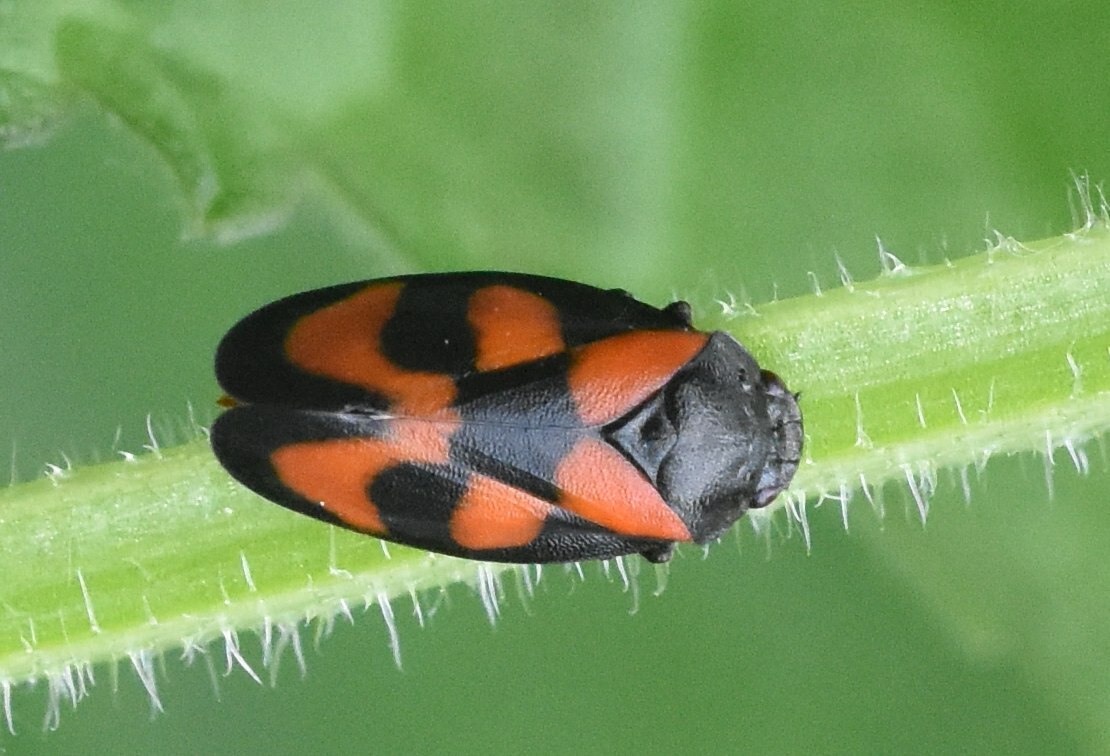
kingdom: Animalia
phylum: Arthropoda
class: Insecta
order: Hemiptera
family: Cercopidae
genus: Cercopis
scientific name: Cercopis vulnerata
